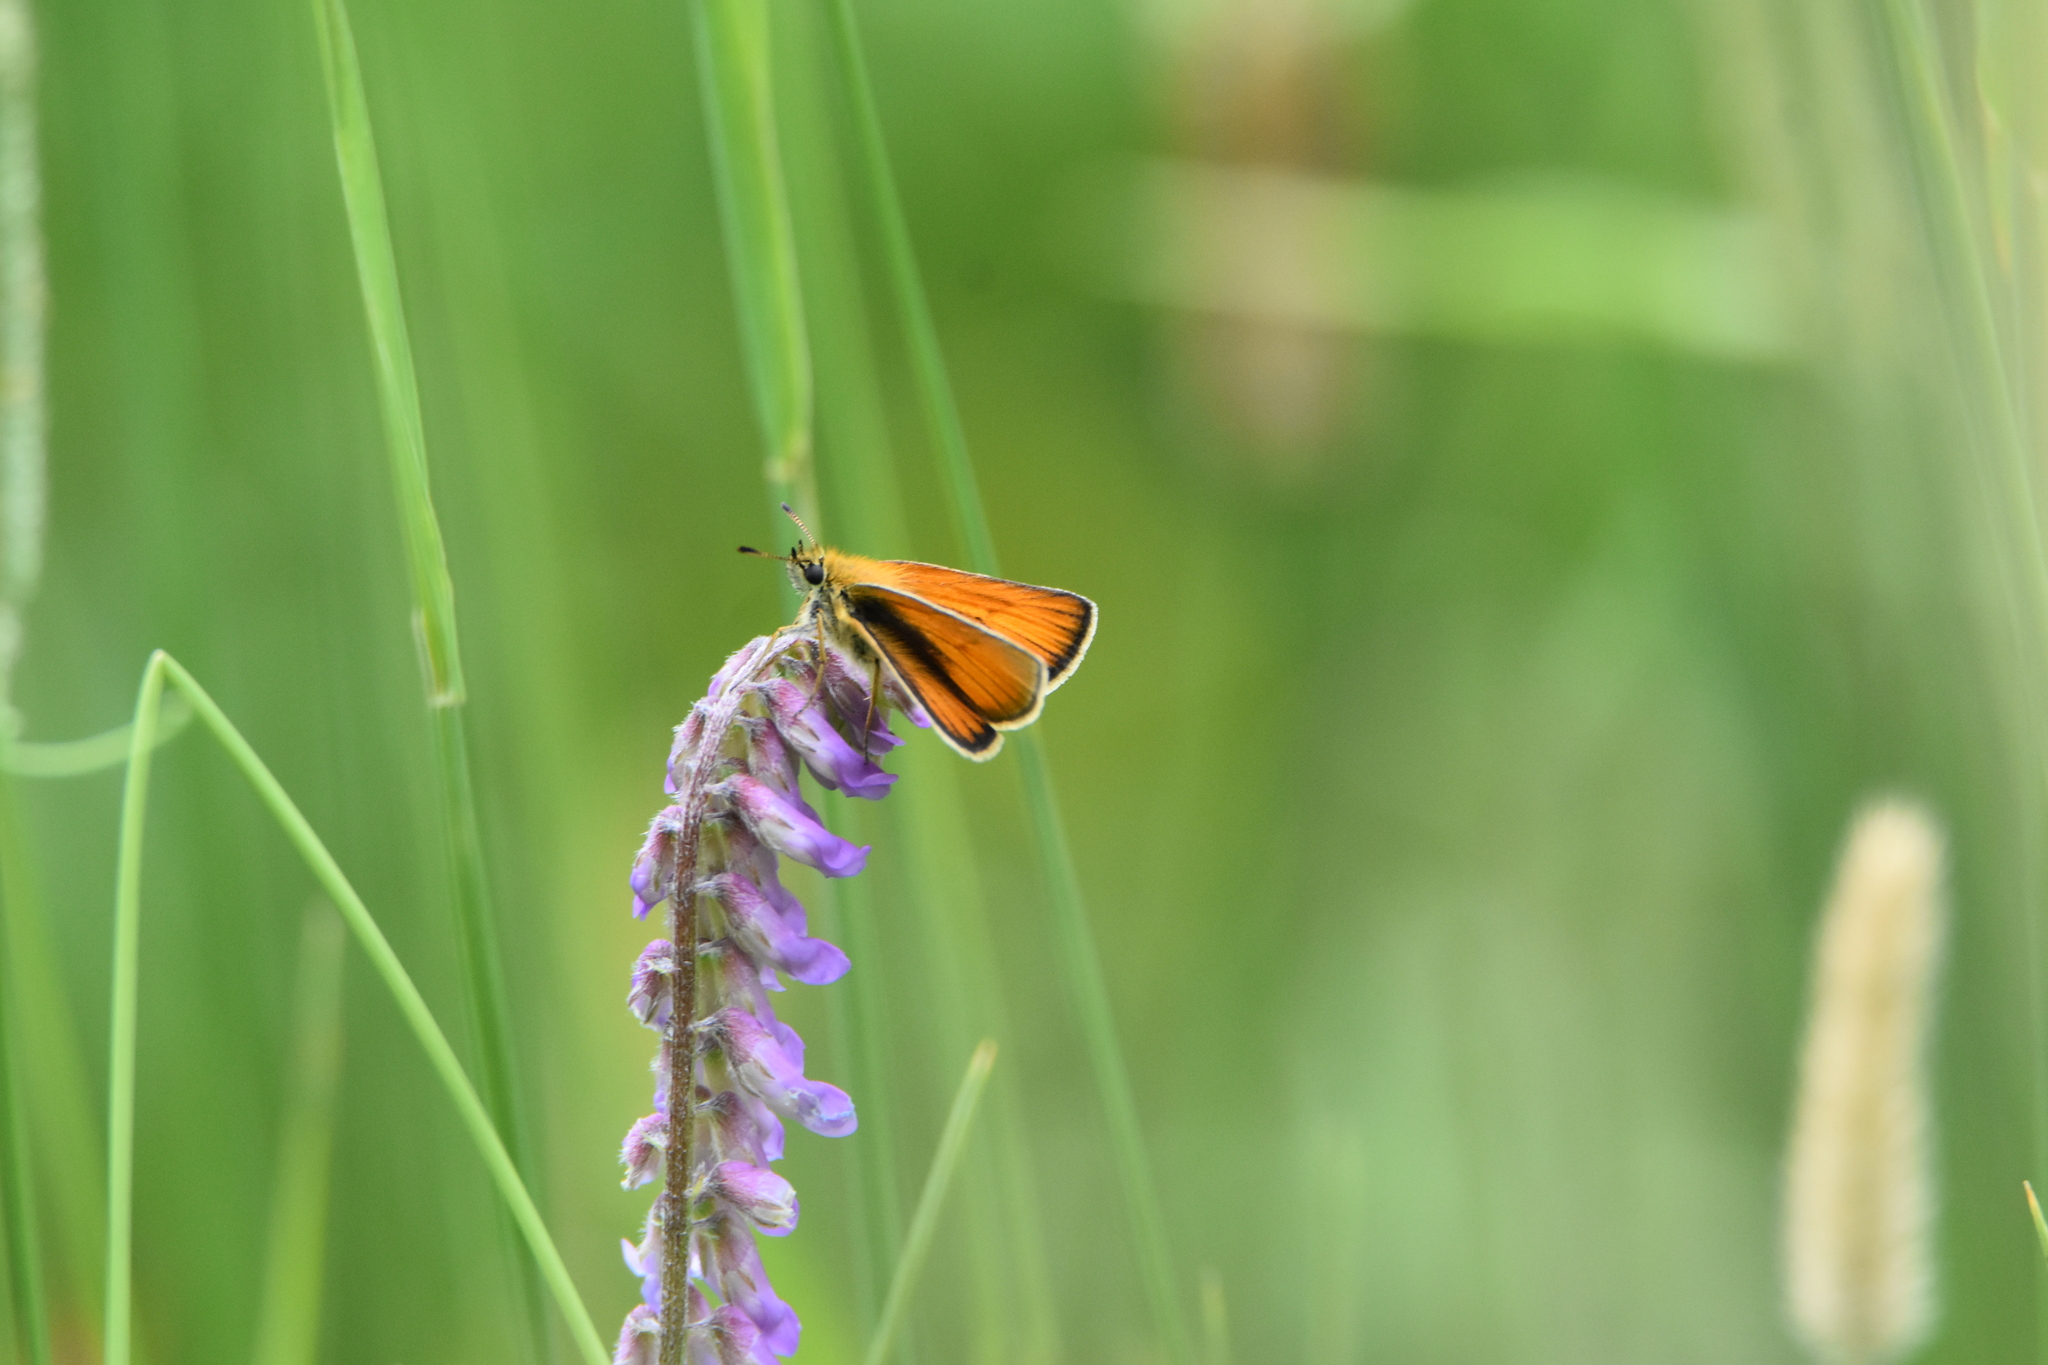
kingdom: Animalia
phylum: Arthropoda
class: Insecta
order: Lepidoptera
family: Hesperiidae
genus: Thymelicus
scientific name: Thymelicus lineola
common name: Essex skipper
